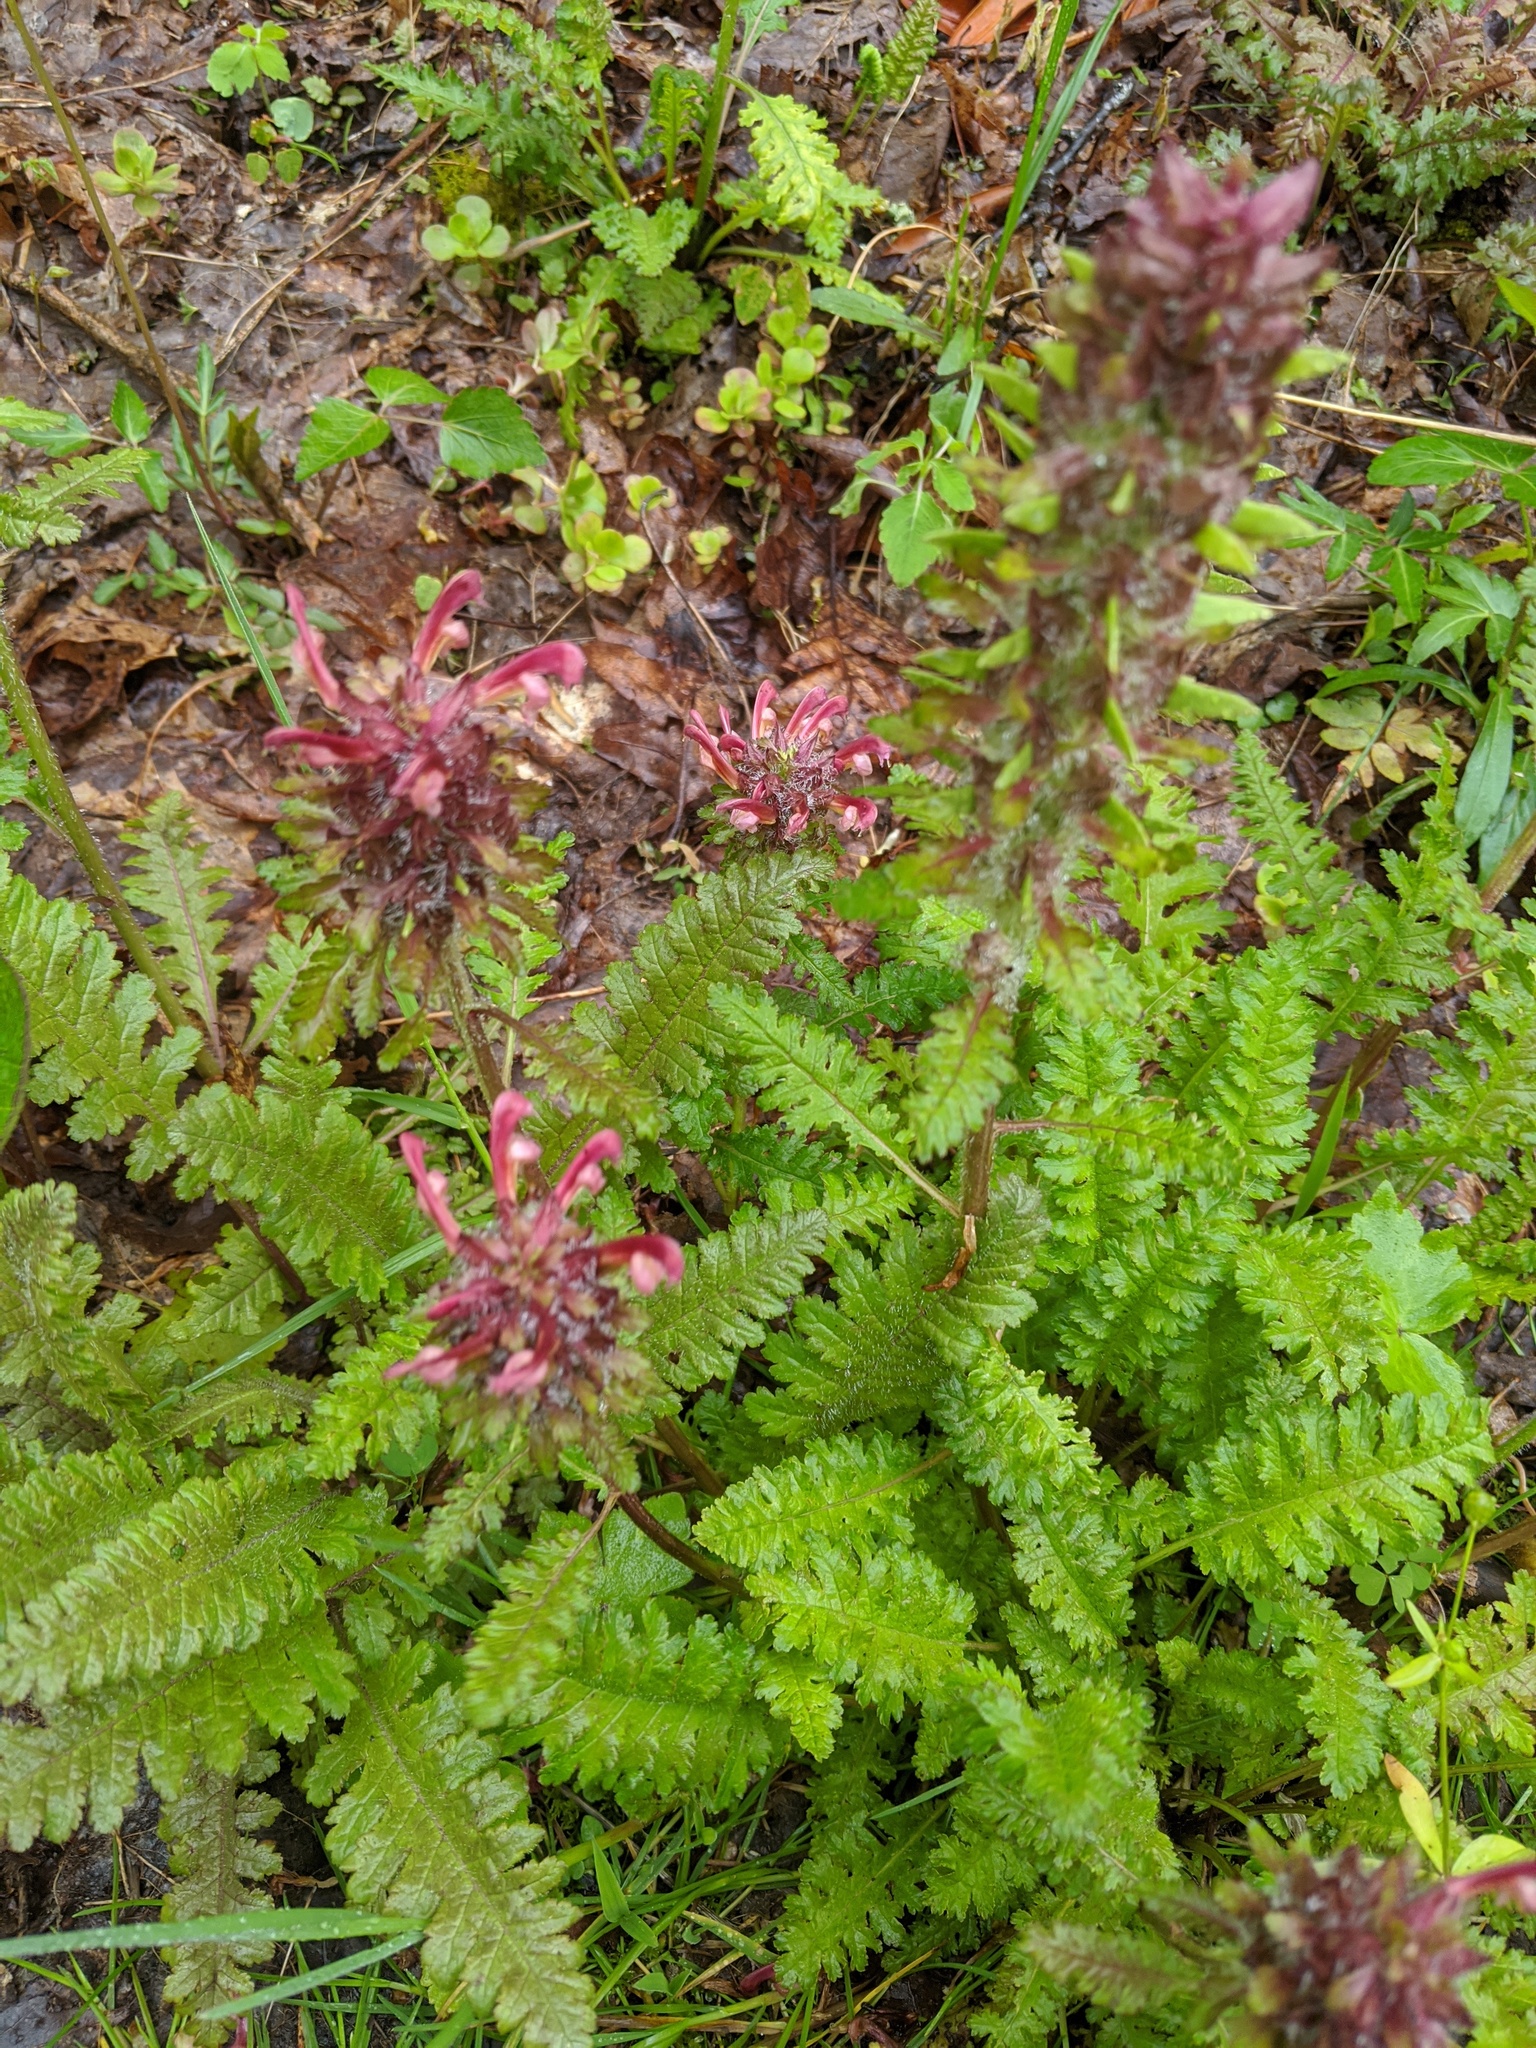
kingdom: Plantae
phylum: Tracheophyta
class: Magnoliopsida
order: Lamiales
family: Orobanchaceae
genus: Pedicularis
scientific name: Pedicularis canadensis
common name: Early lousewort
